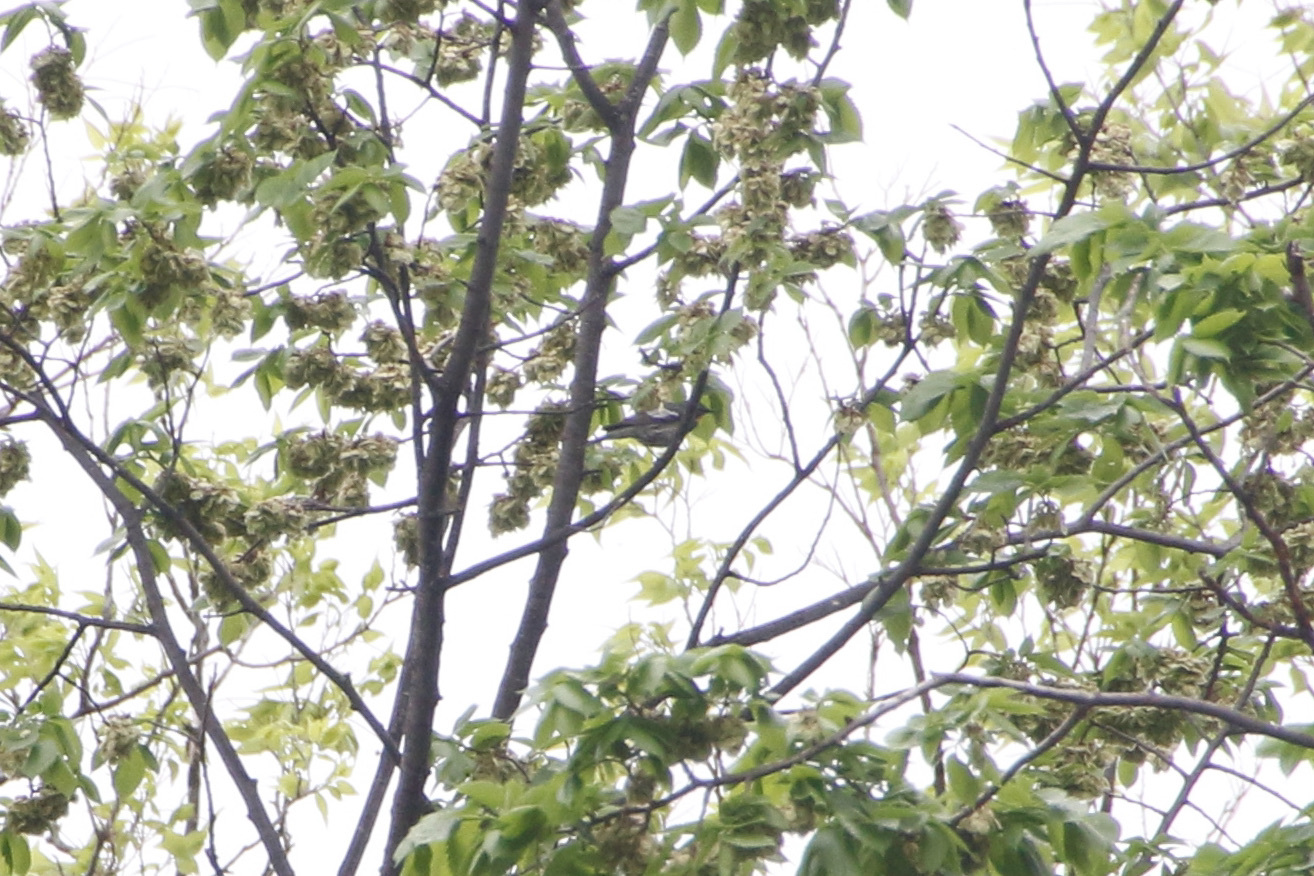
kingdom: Animalia
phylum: Chordata
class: Aves
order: Passeriformes
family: Parulidae
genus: Setophaga
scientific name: Setophaga auduboni
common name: Audubon's warbler
